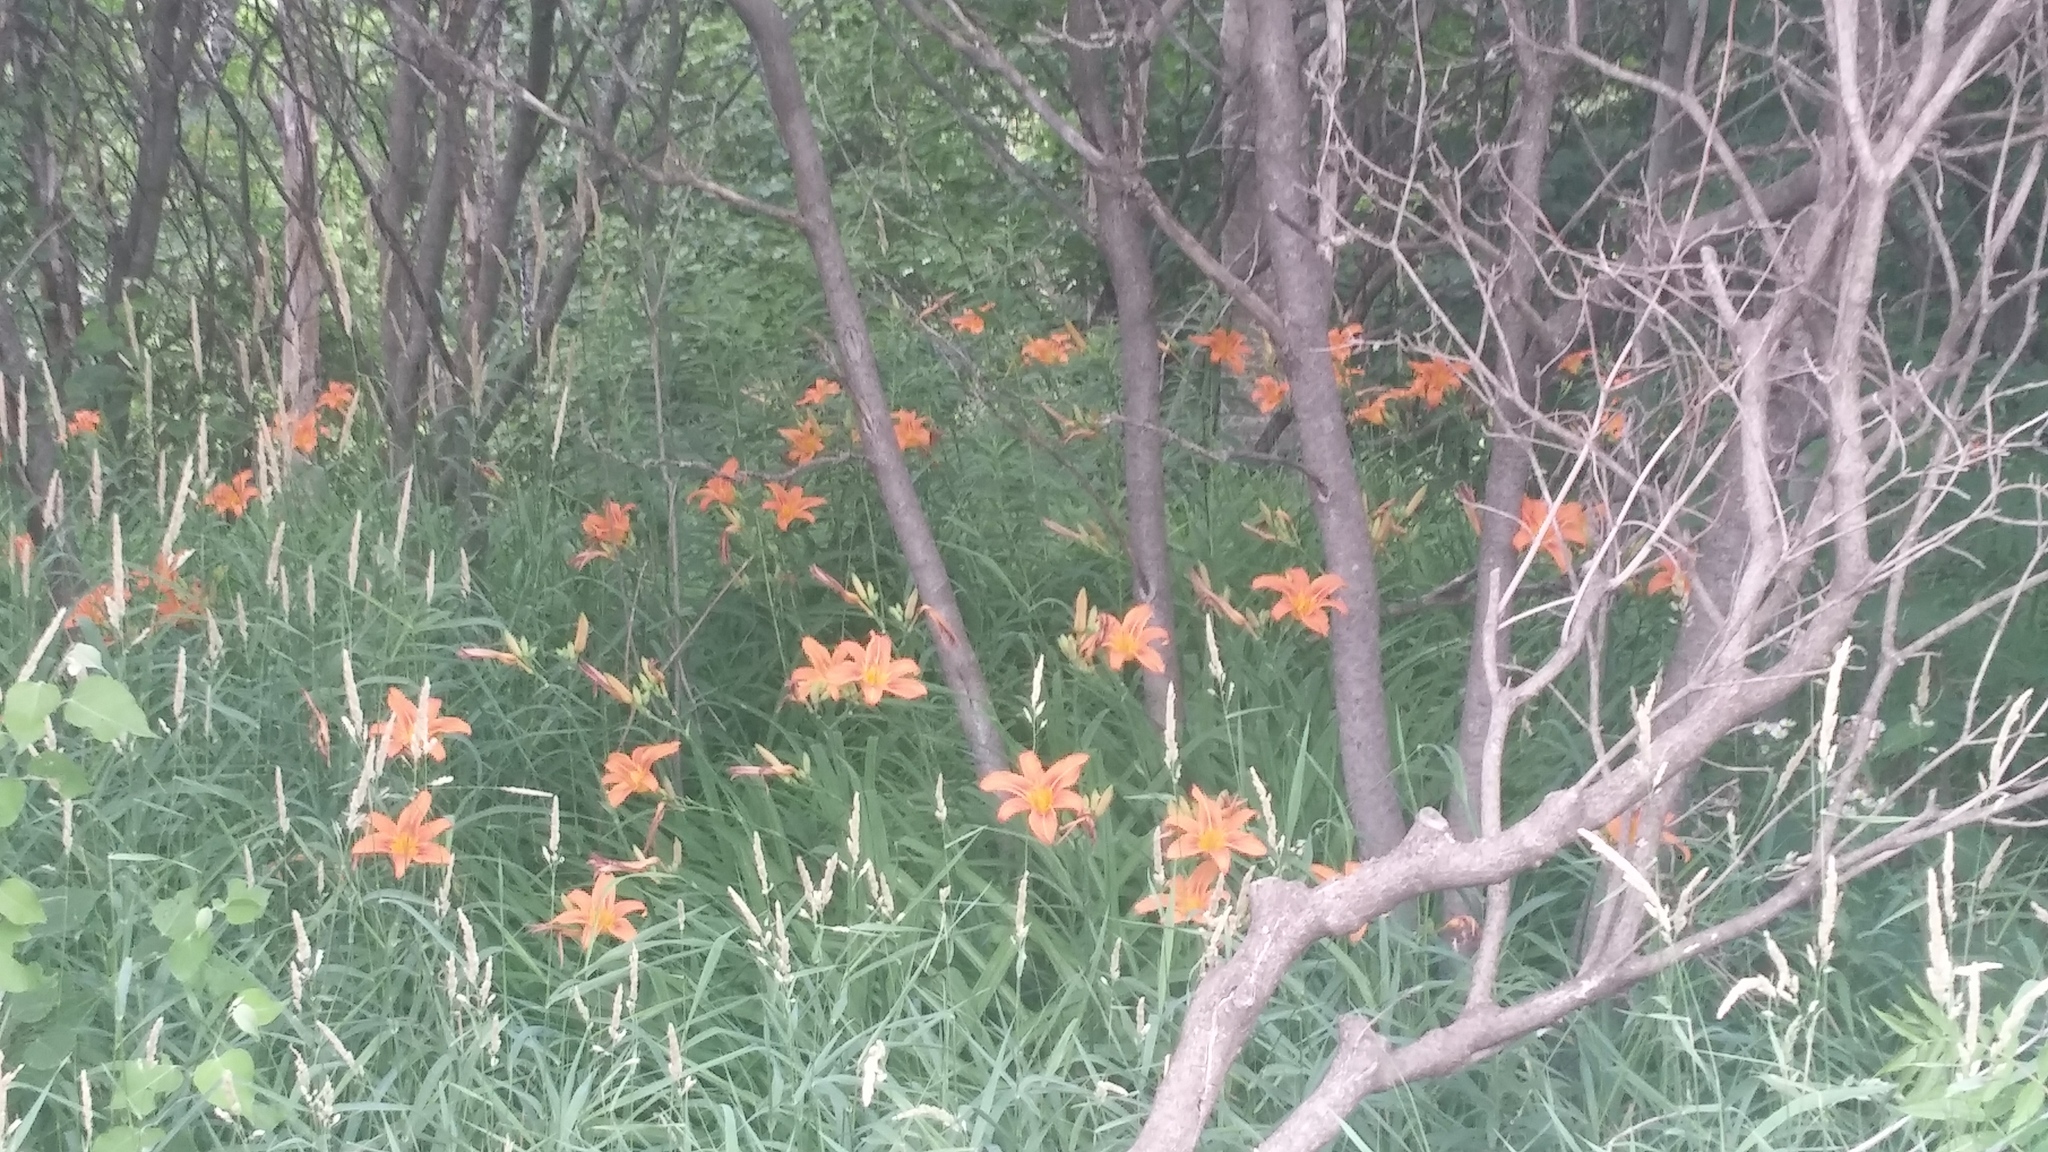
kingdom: Plantae
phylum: Tracheophyta
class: Liliopsida
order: Asparagales
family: Asphodelaceae
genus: Hemerocallis
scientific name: Hemerocallis fulva
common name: Orange day-lily
